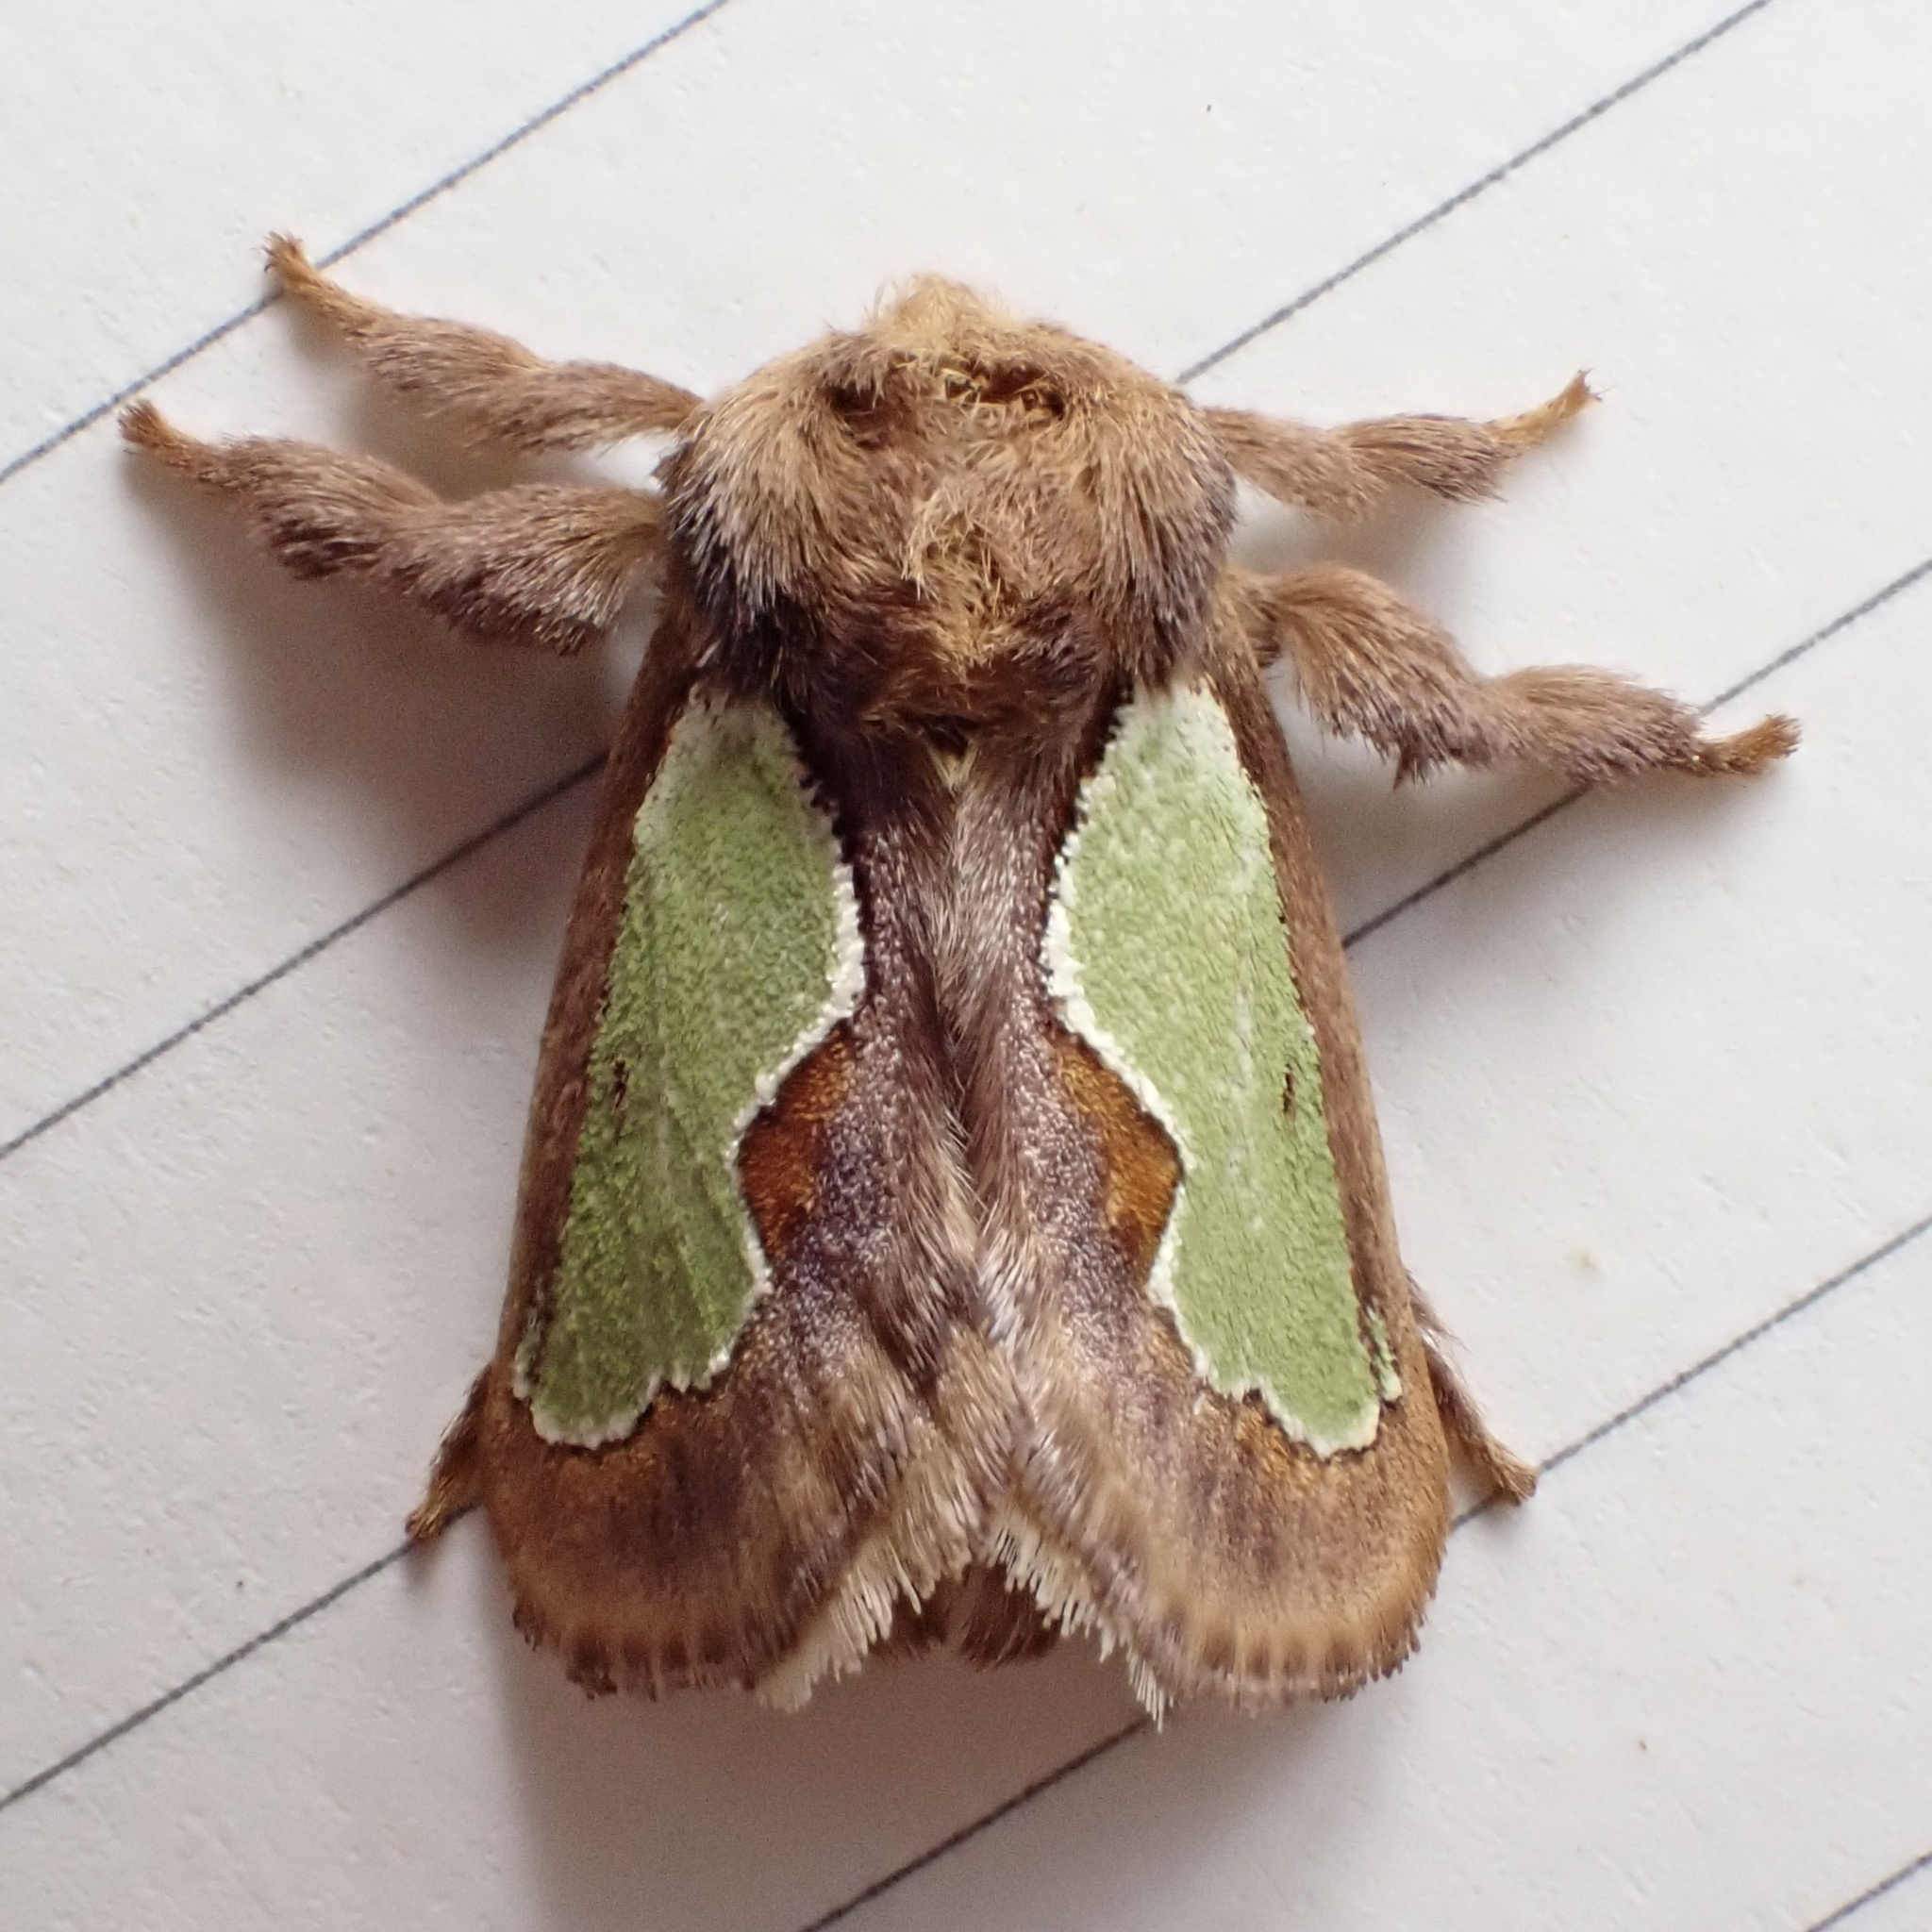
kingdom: Animalia
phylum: Arthropoda
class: Insecta
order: Lepidoptera
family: Limacodidae
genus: Euclea
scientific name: Euclea delphinii
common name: Spiny oak-slug moth
